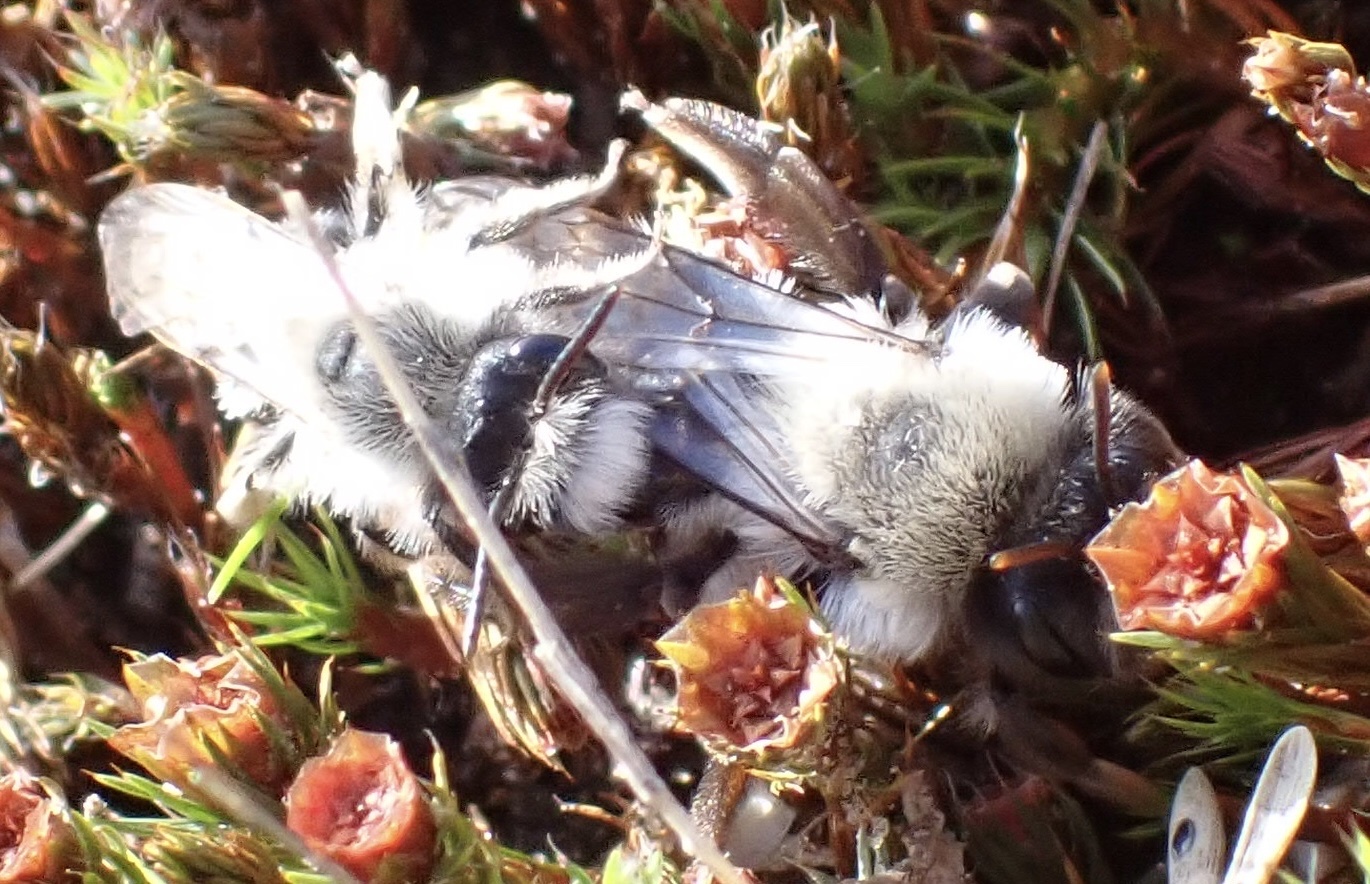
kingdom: Animalia
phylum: Arthropoda
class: Insecta
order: Hymenoptera
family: Andrenidae
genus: Andrena
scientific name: Andrena vaga
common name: Grey-backed mining bee
